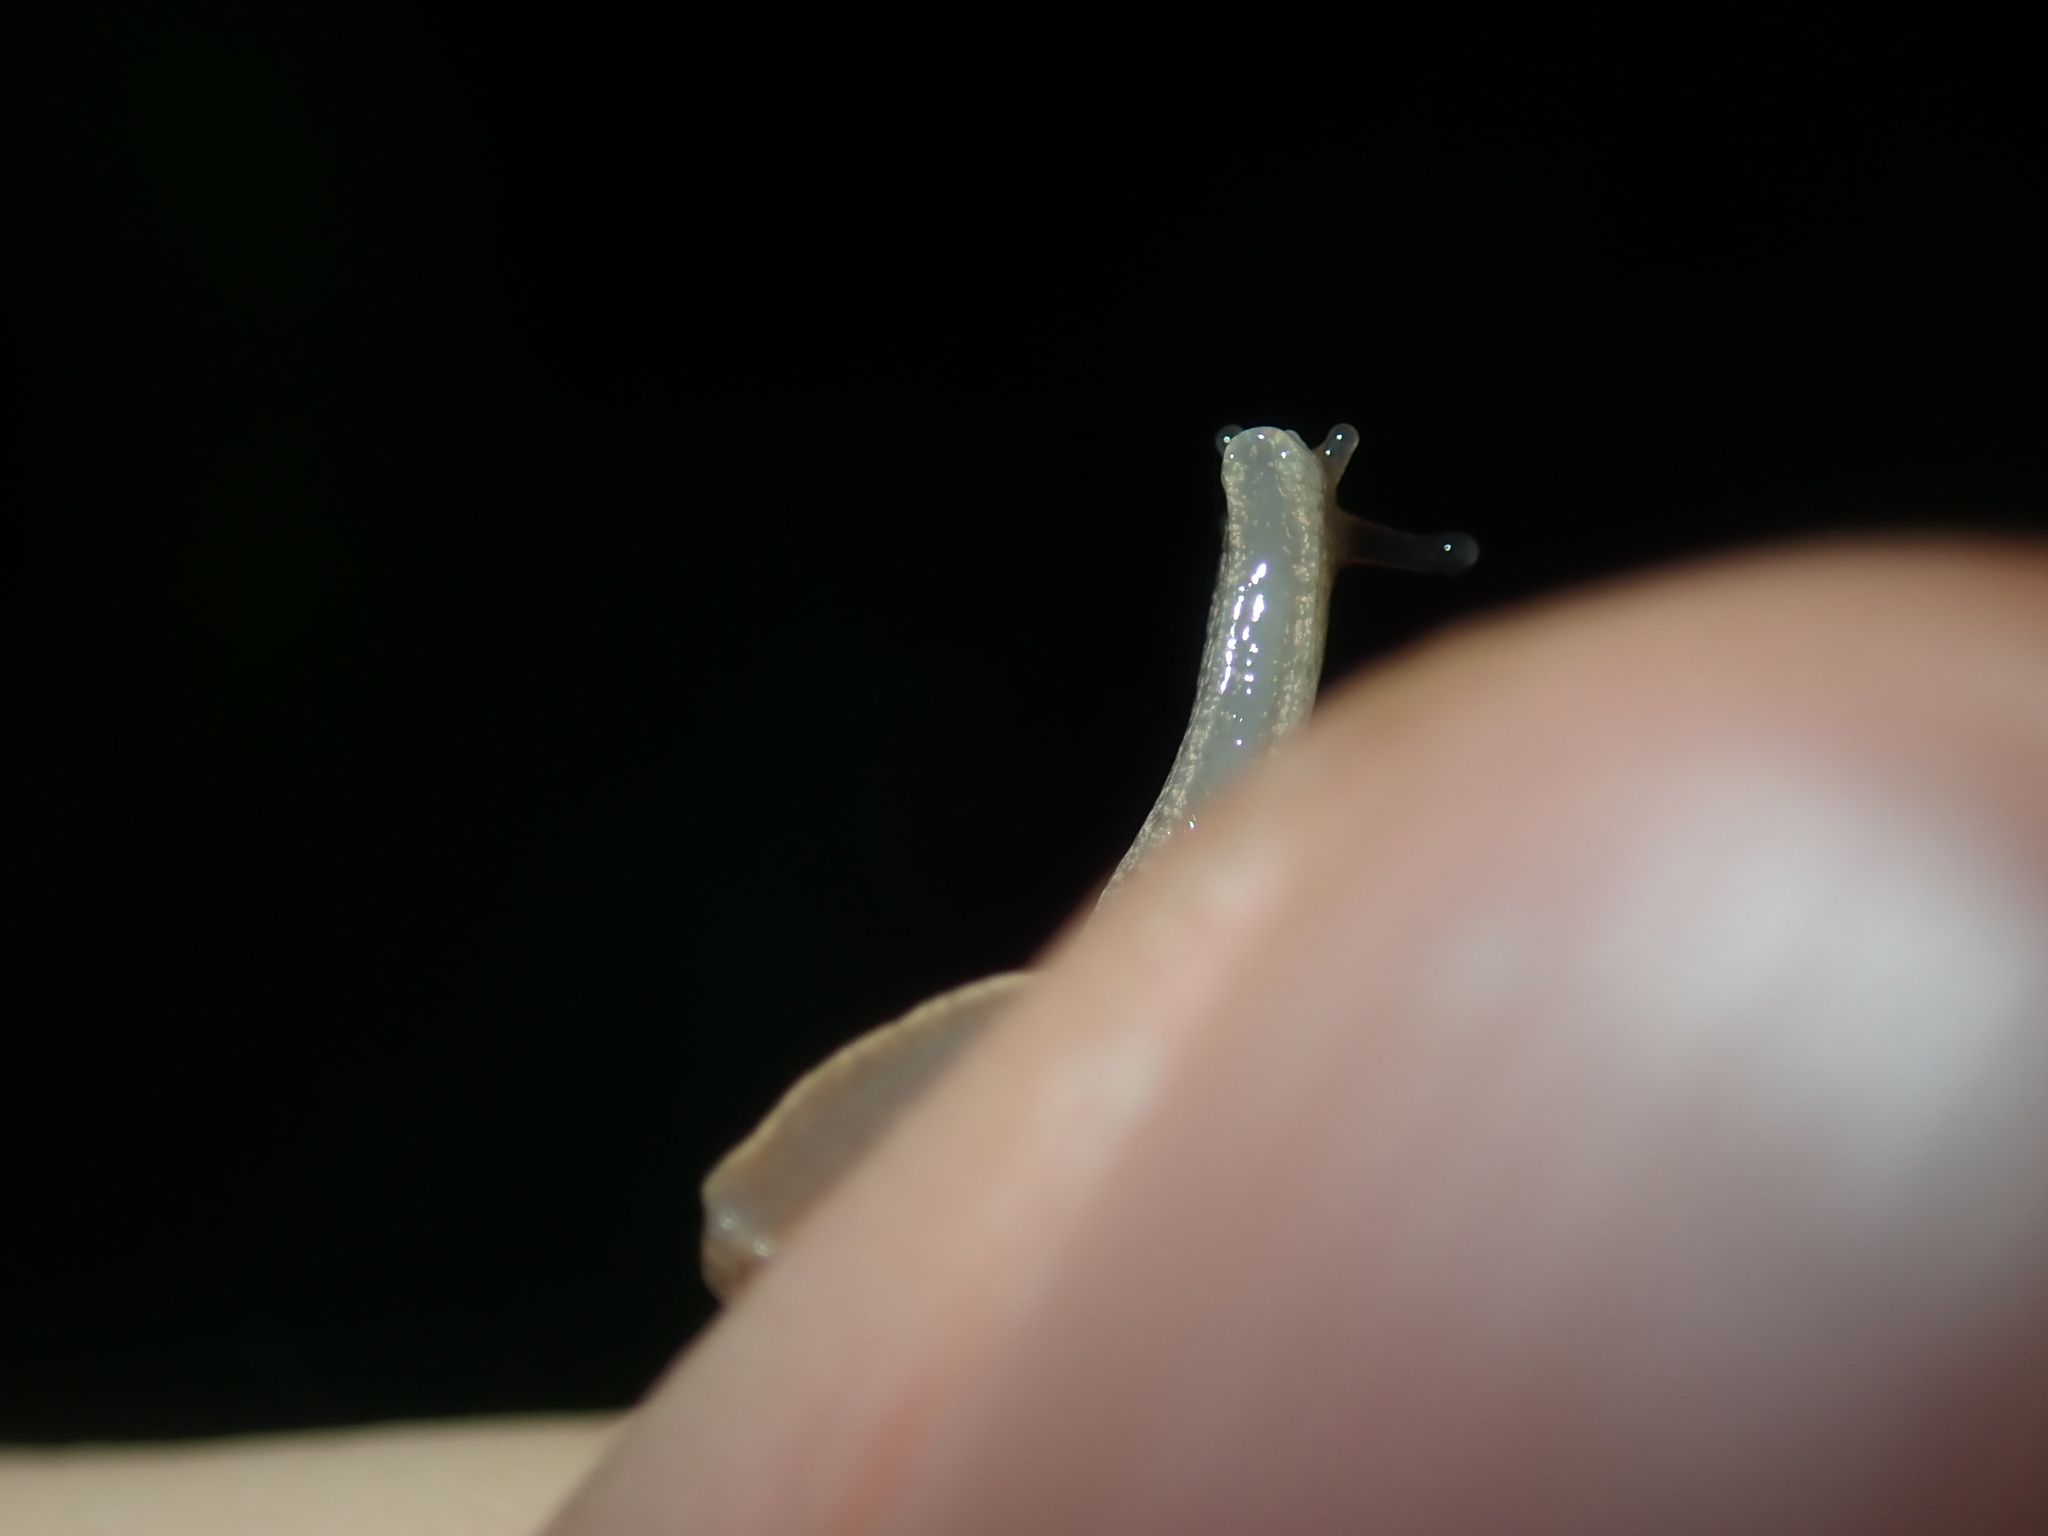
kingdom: Animalia
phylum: Mollusca
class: Gastropoda
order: Stylommatophora
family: Helicarionidae
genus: Ubiquitarion
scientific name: Ubiquitarion iridis
